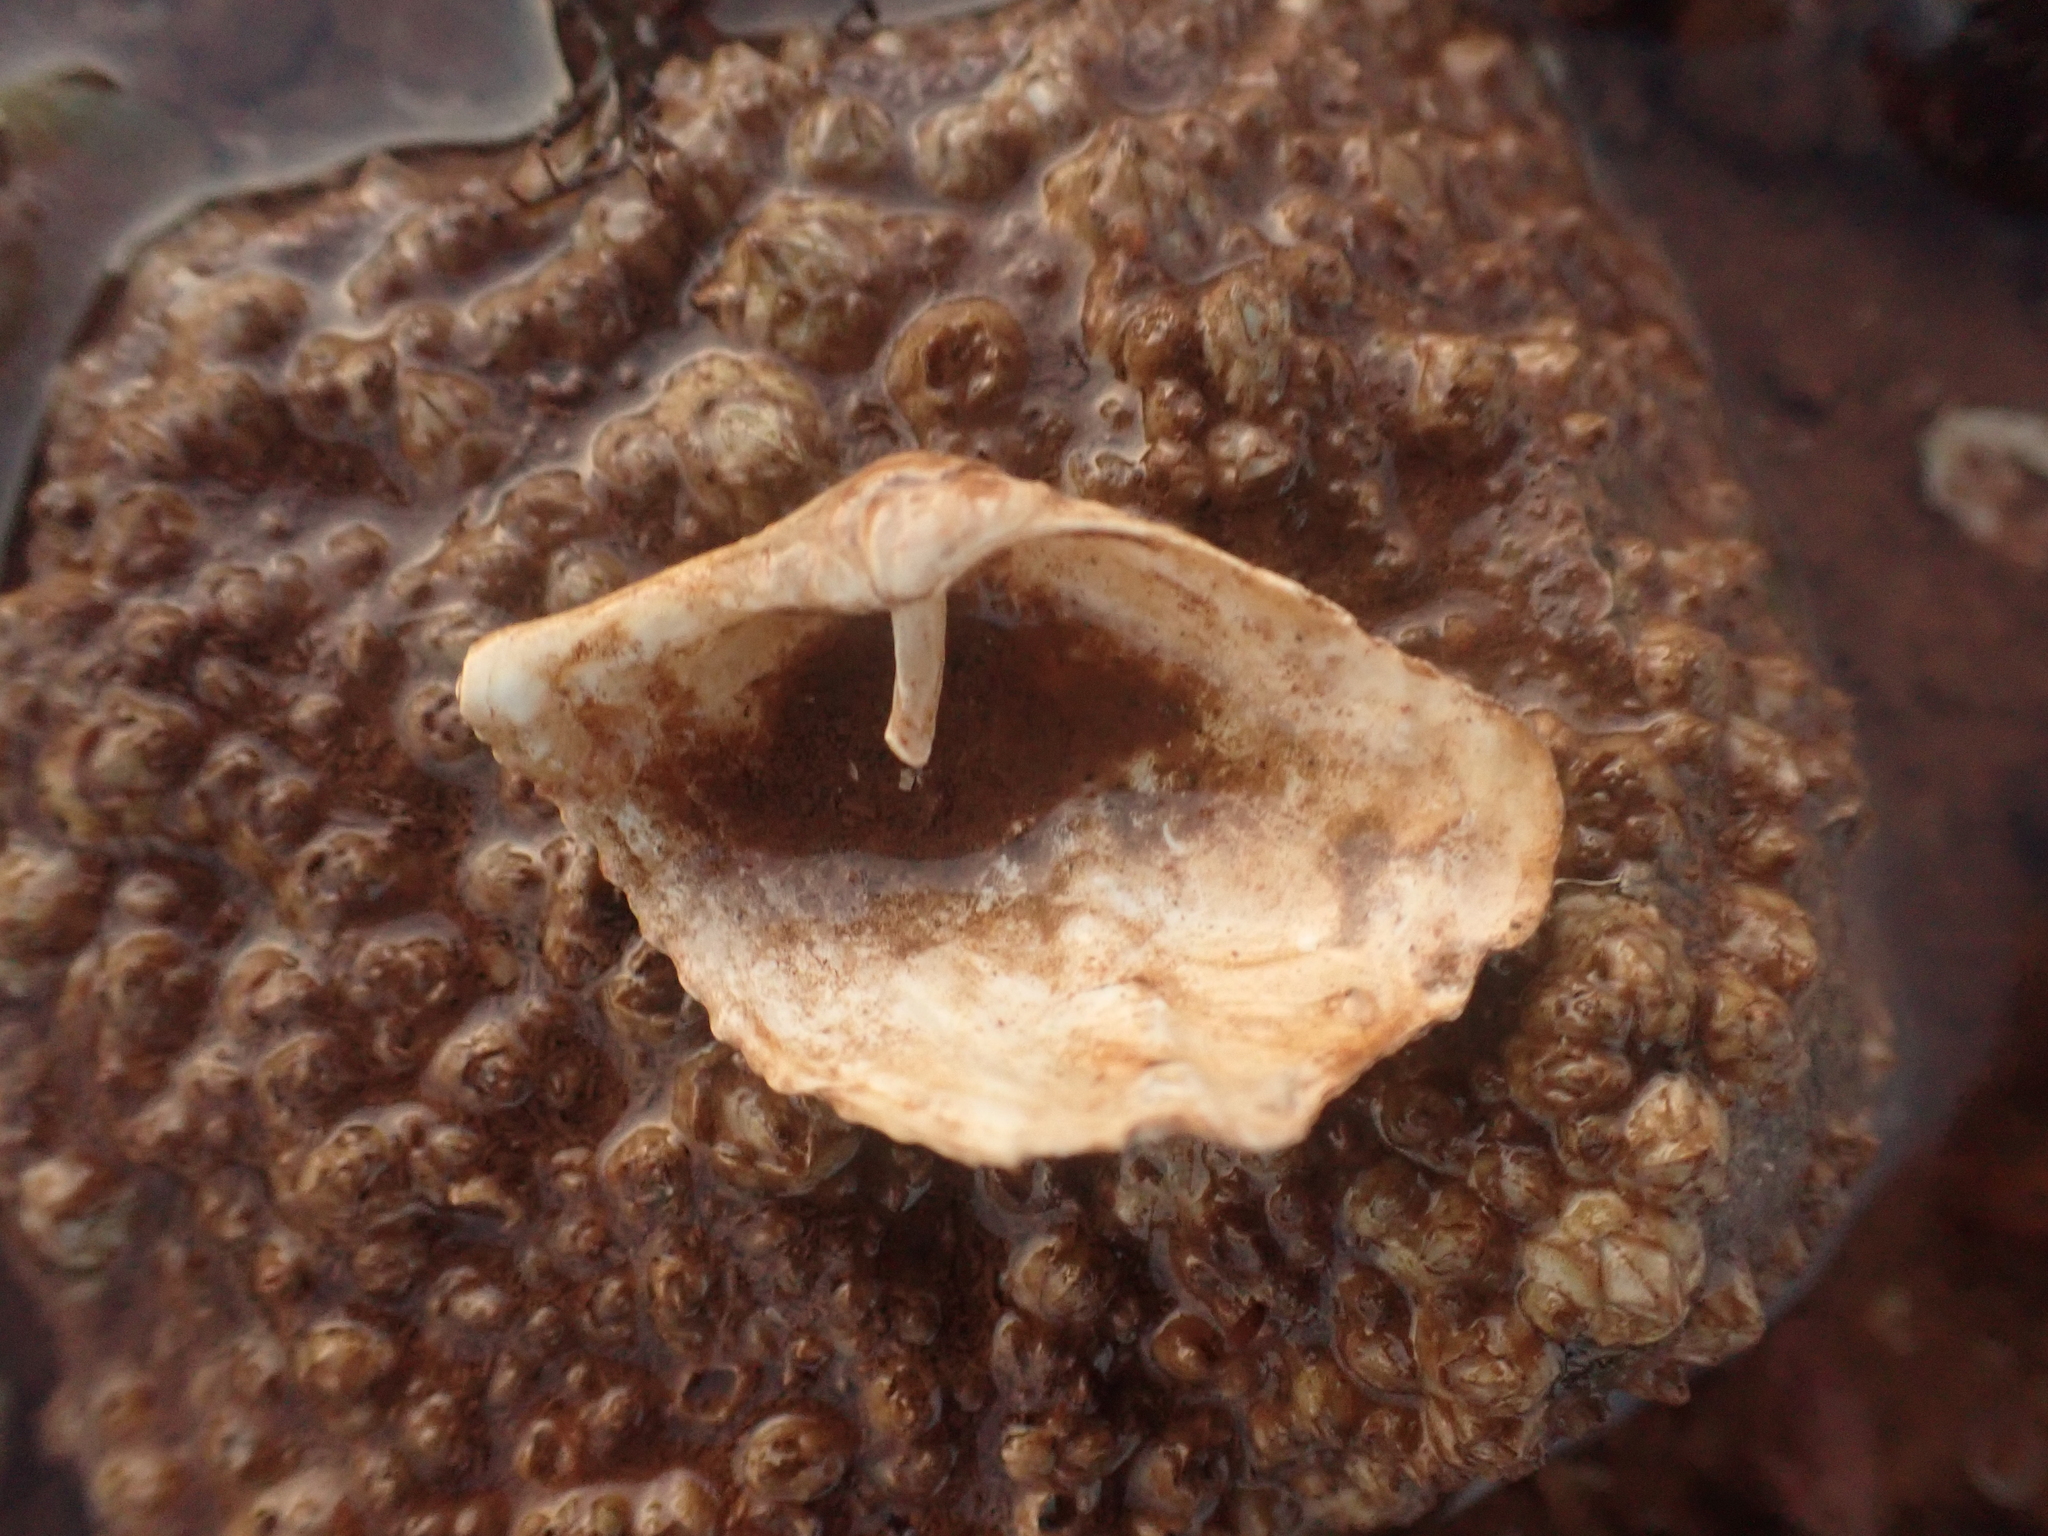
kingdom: Animalia
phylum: Mollusca
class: Bivalvia
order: Myida
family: Pholadidae
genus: Zirfaea
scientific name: Zirfaea crispata
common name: Oval piddock
